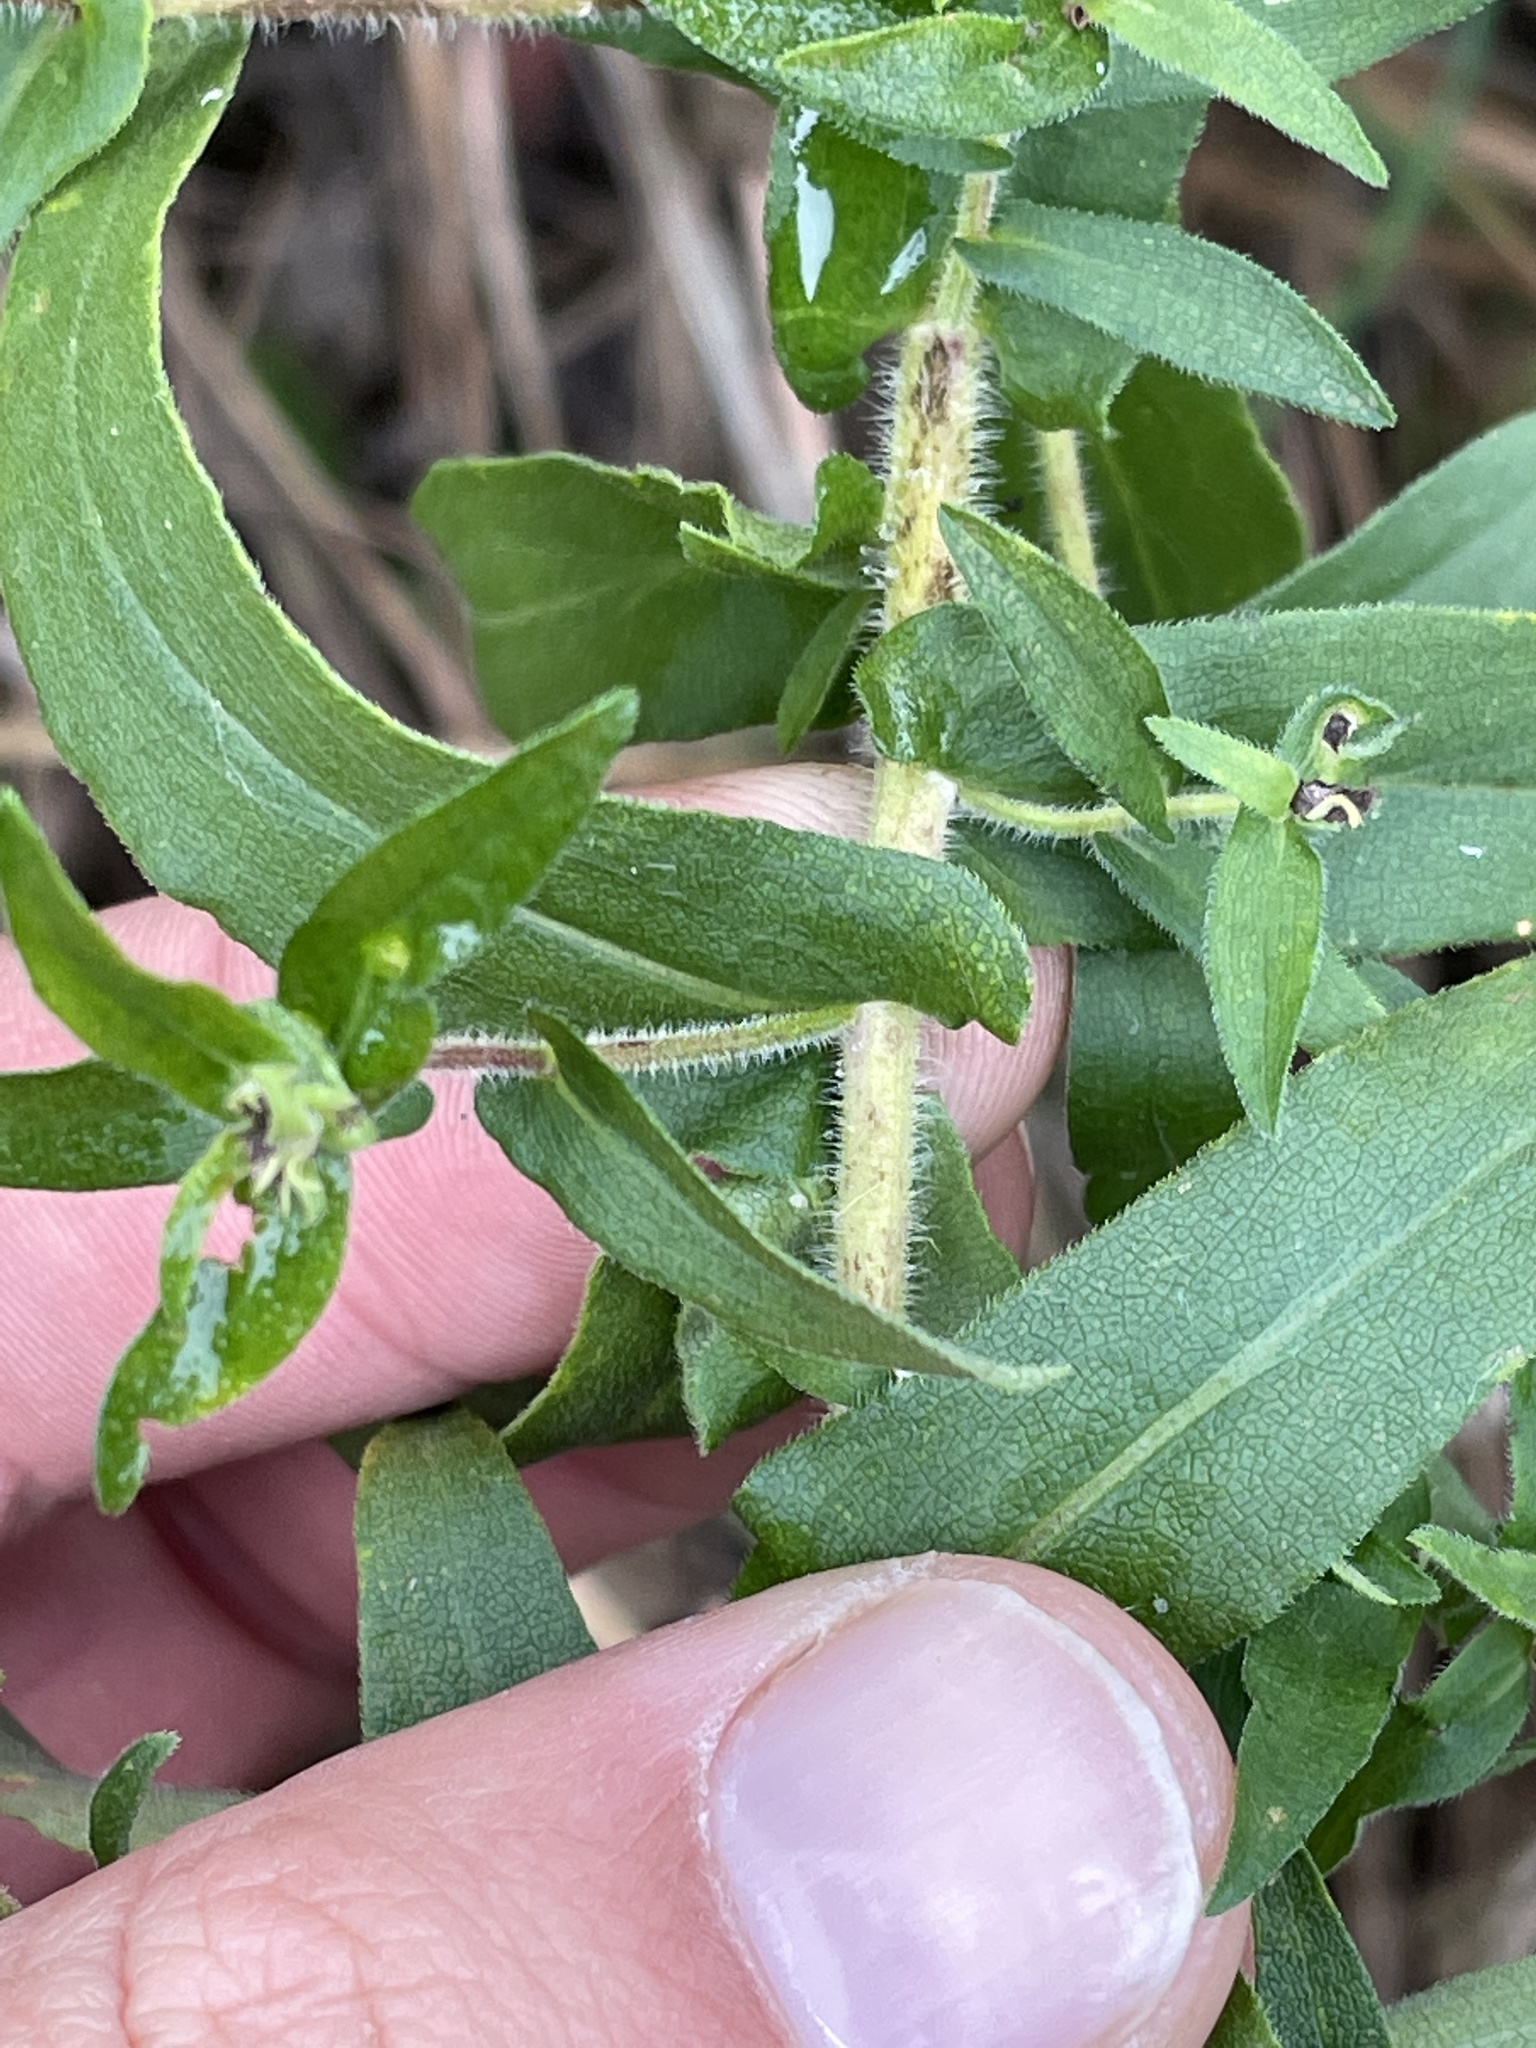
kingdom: Plantae
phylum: Tracheophyta
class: Magnoliopsida
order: Asterales
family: Asteraceae
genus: Symphyotrichum
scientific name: Symphyotrichum novae-angliae
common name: Michaelmas daisy
